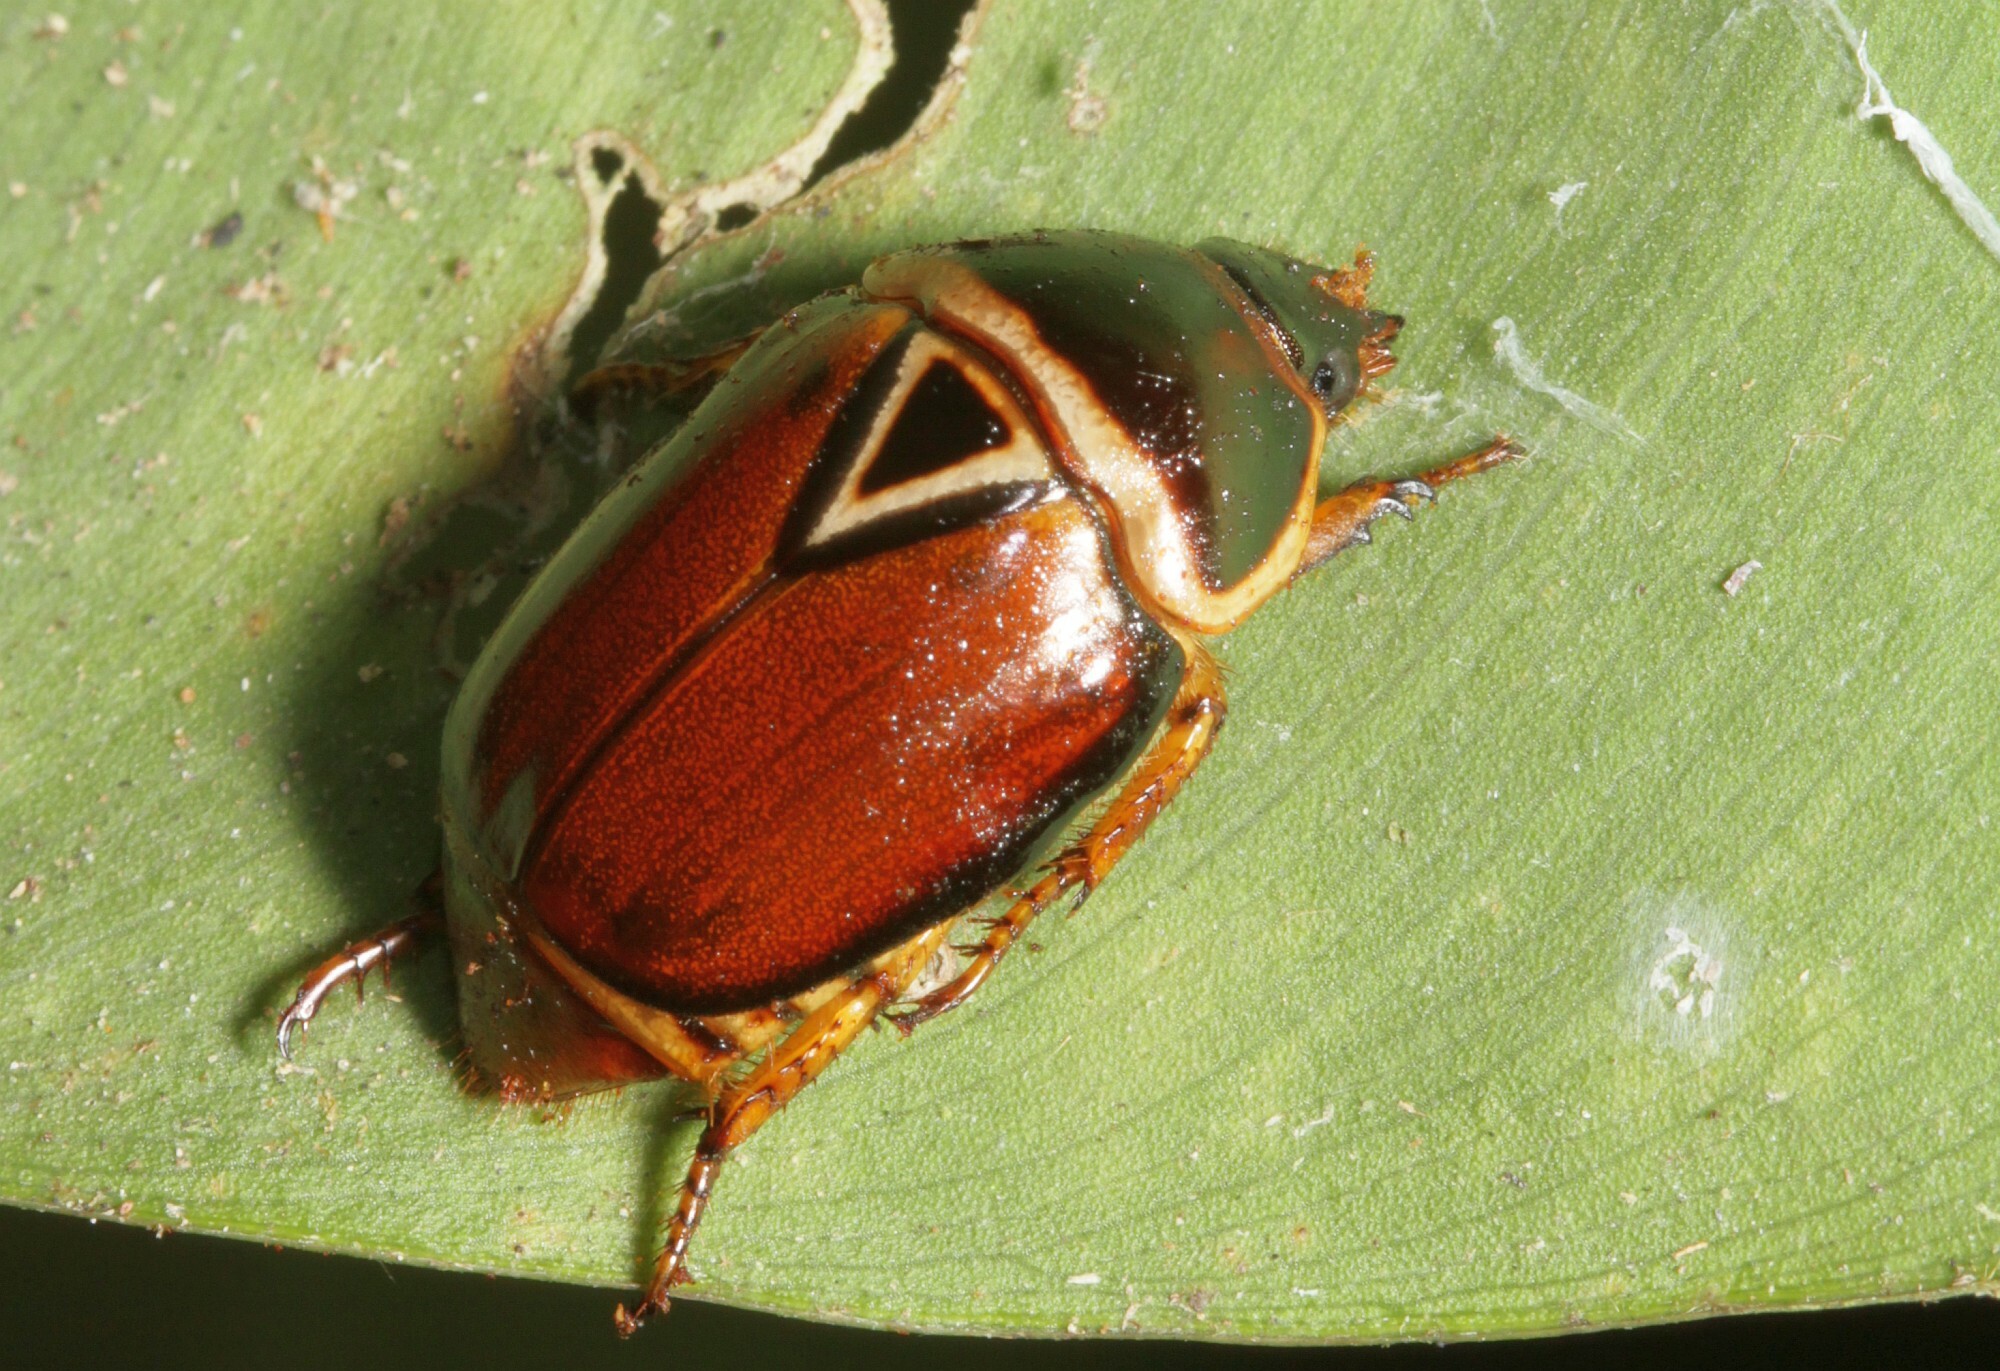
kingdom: Animalia
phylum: Arthropoda
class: Insecta
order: Coleoptera
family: Scarabaeidae
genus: Lagochile
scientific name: Lagochile trigona
